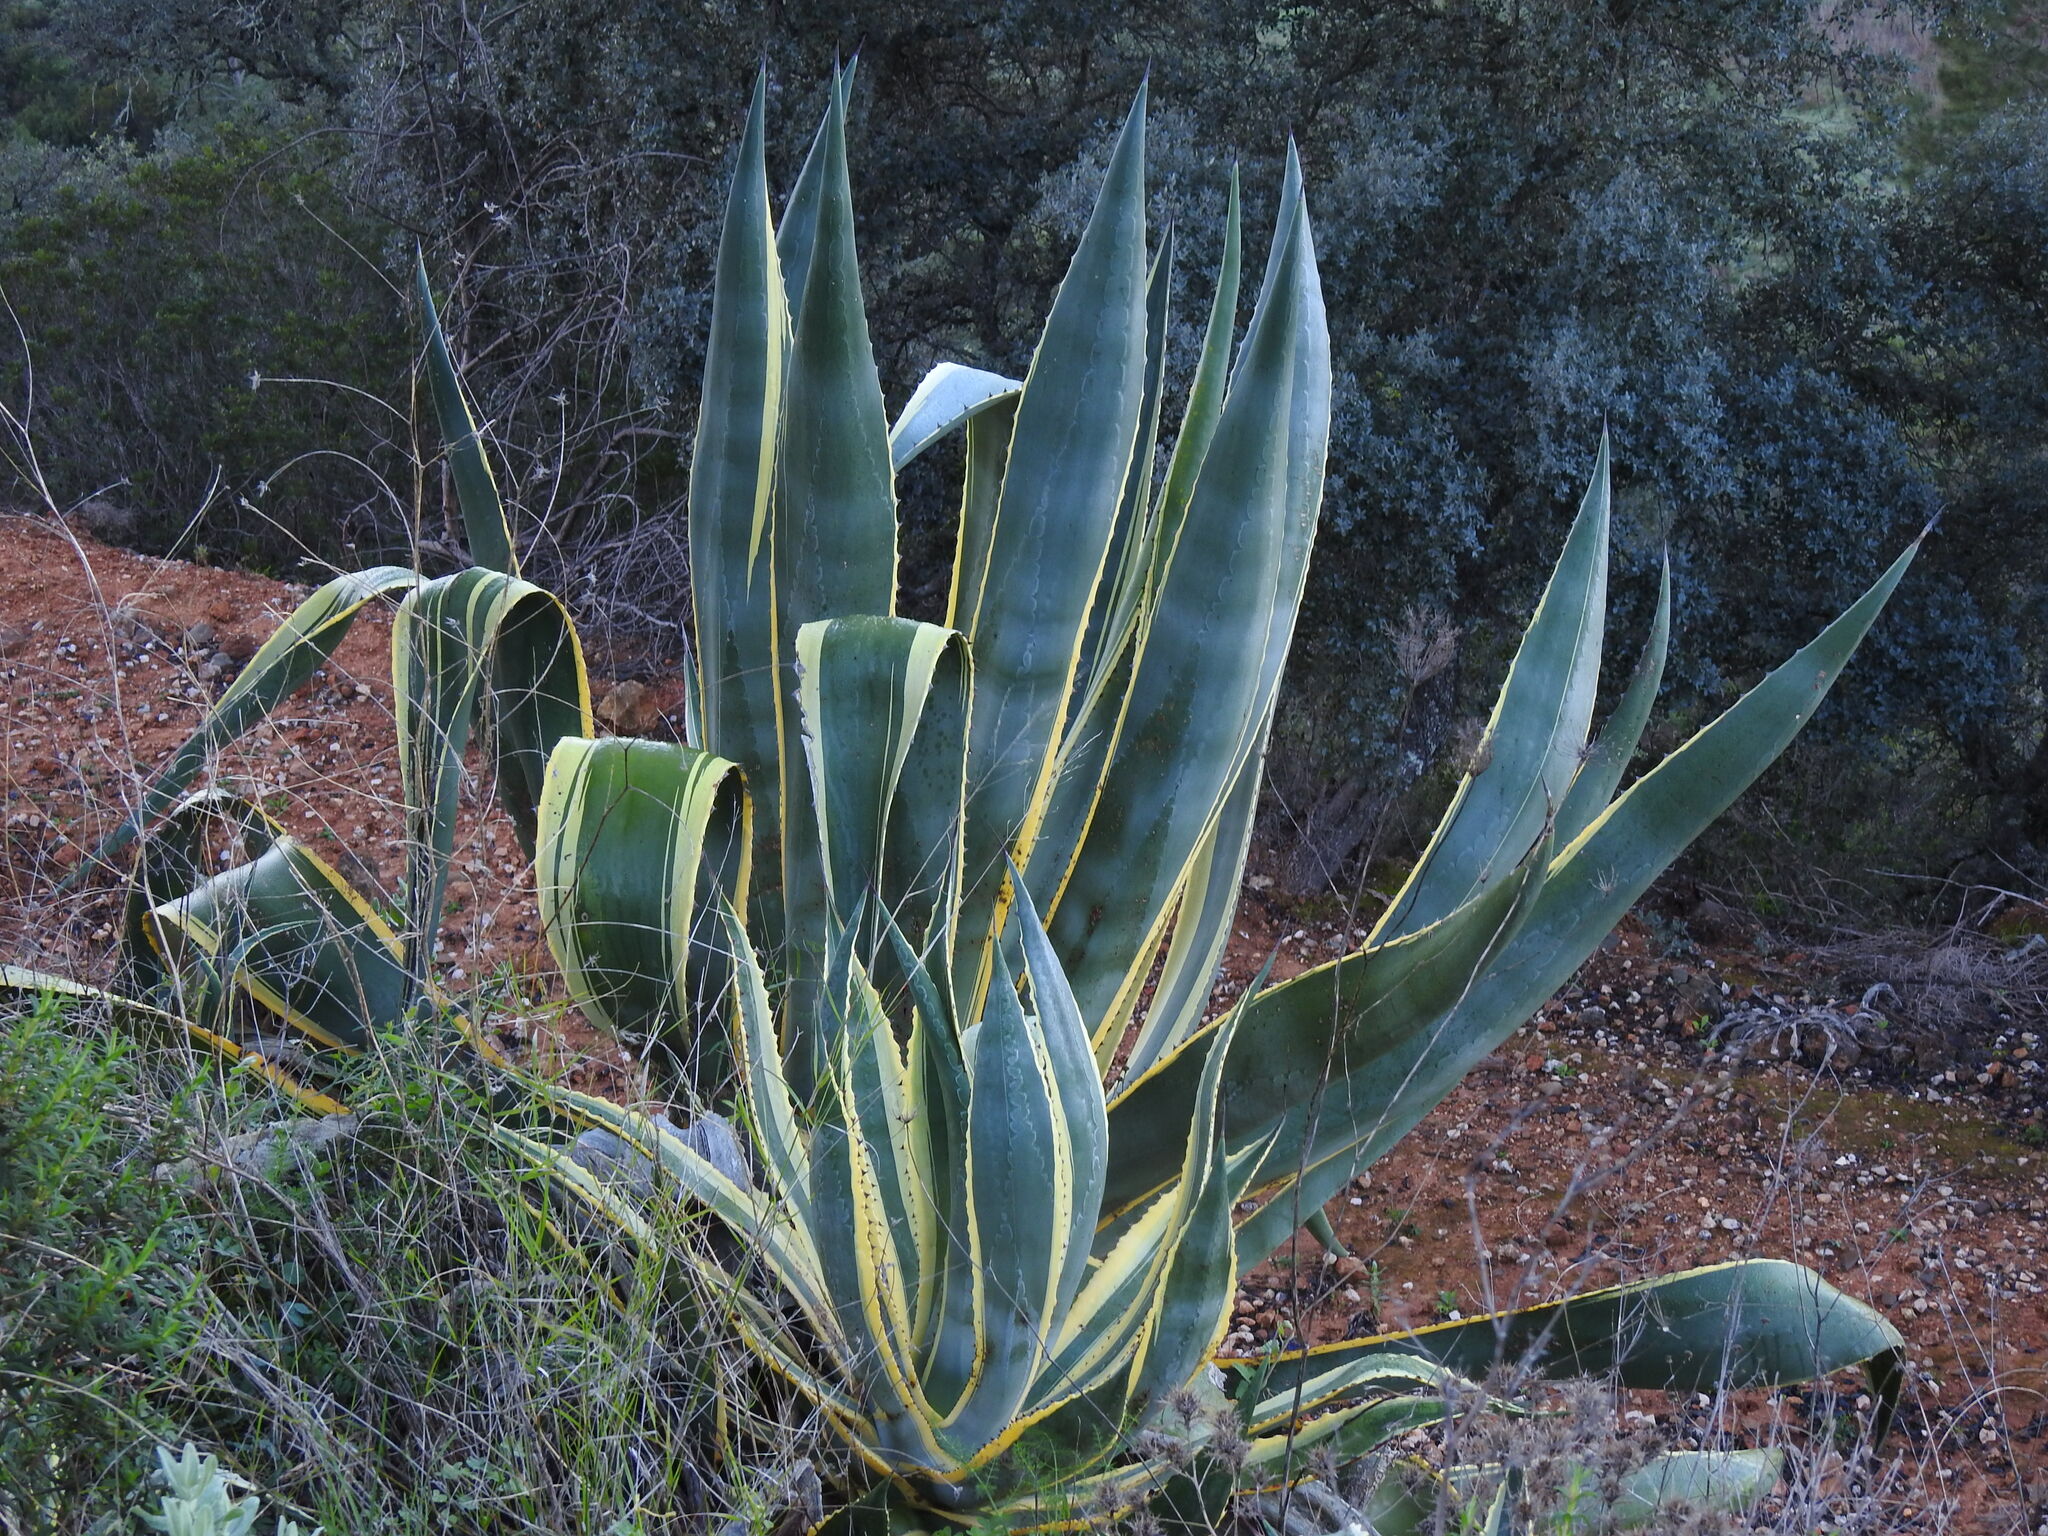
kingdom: Plantae
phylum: Tracheophyta
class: Liliopsida
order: Asparagales
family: Asparagaceae
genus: Agave
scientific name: Agave americana
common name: Centuryplant
